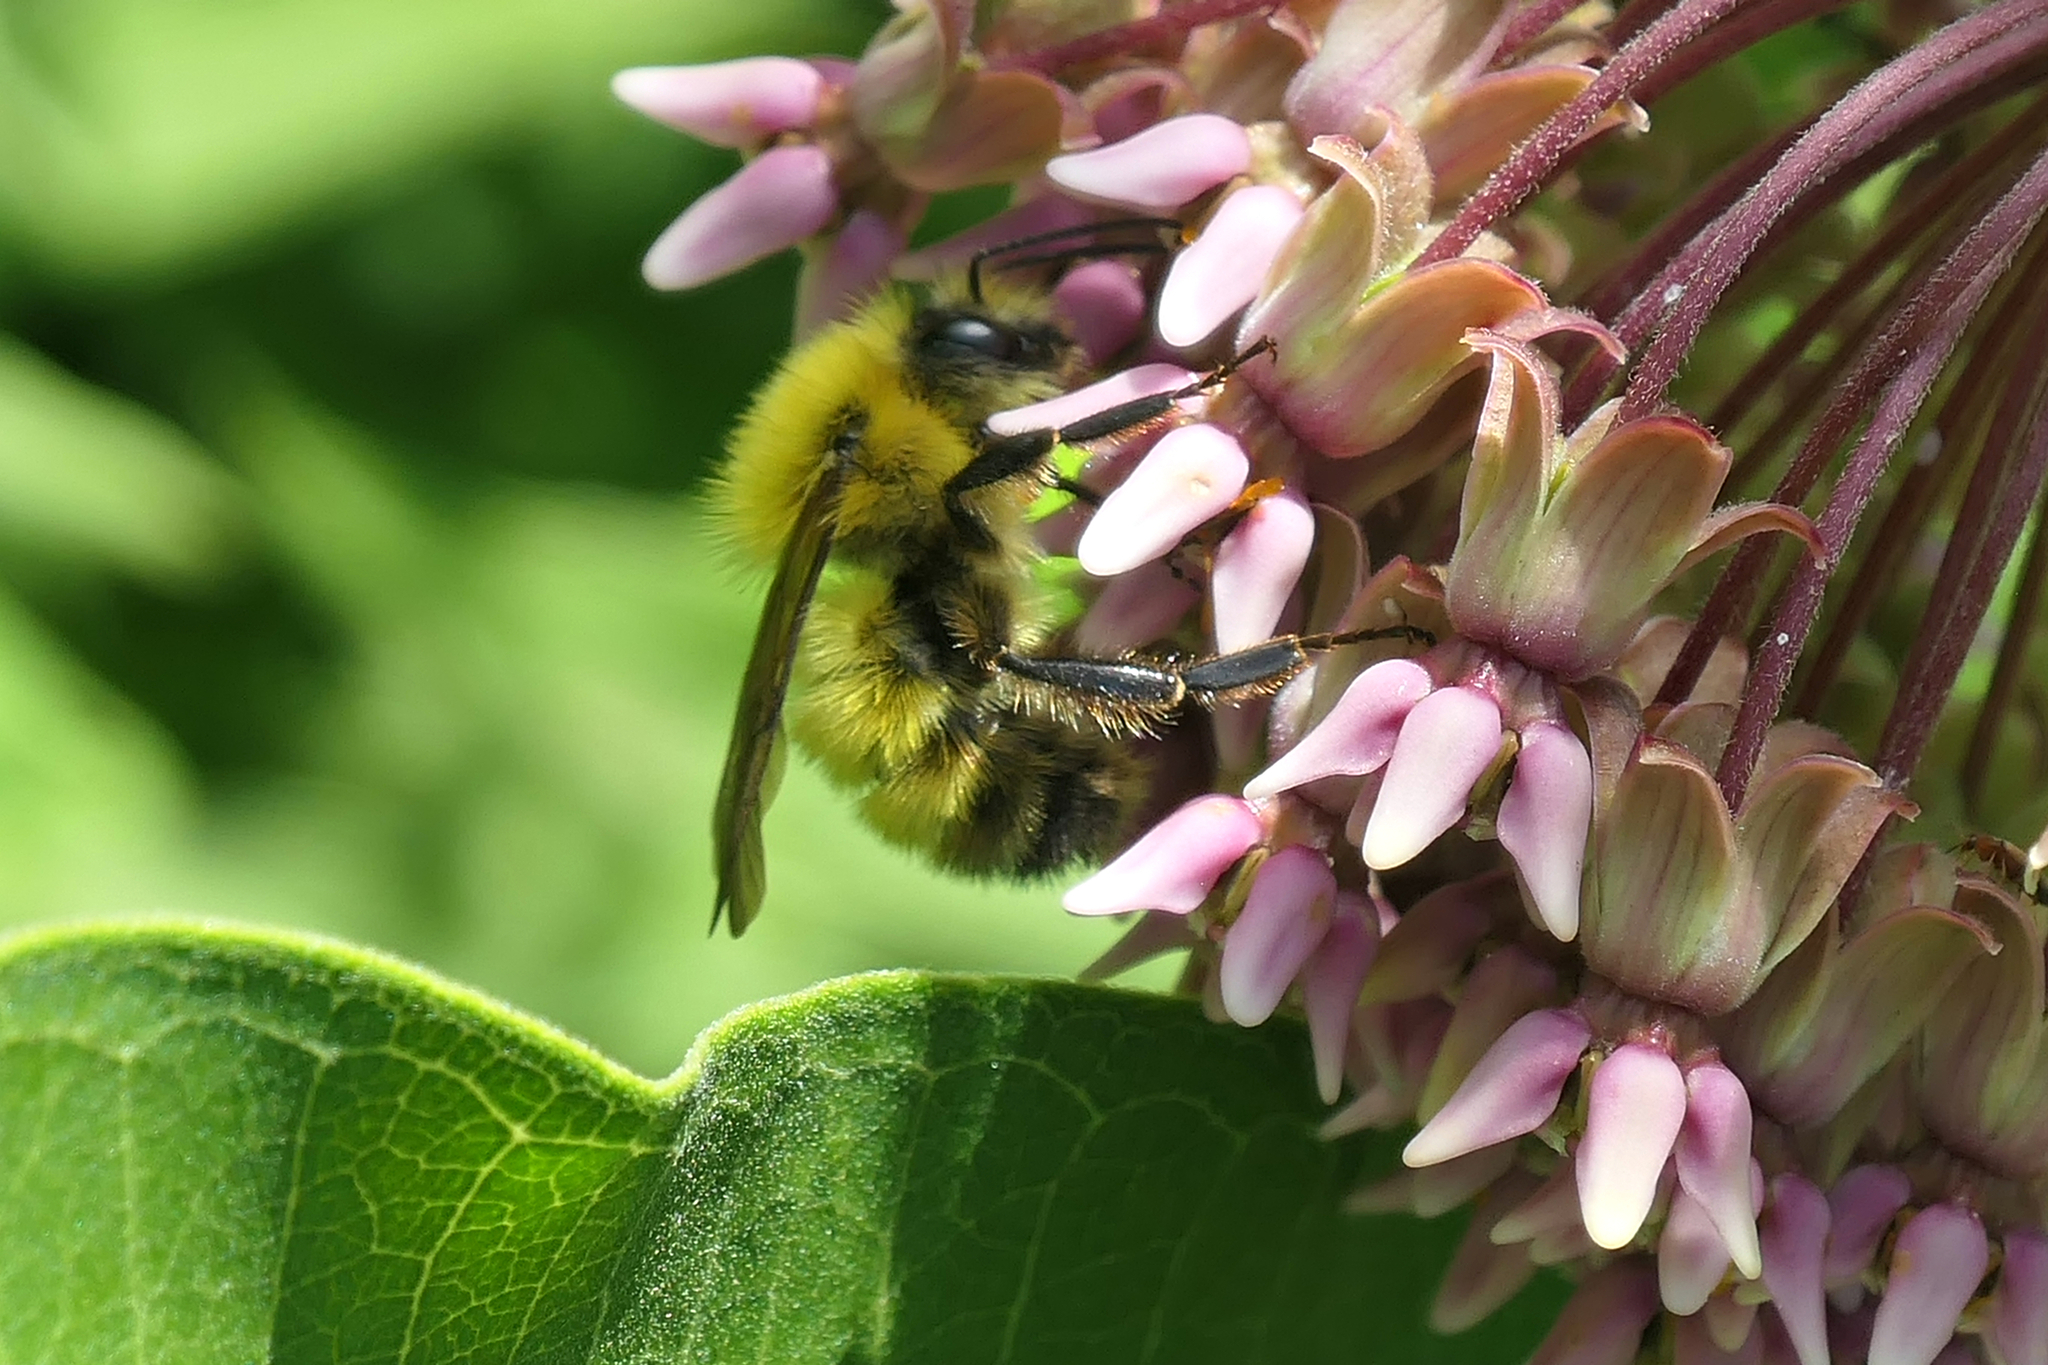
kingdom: Animalia
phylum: Arthropoda
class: Insecta
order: Hymenoptera
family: Apidae
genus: Bombus
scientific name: Bombus perplexus
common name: Confusing bumble bee
